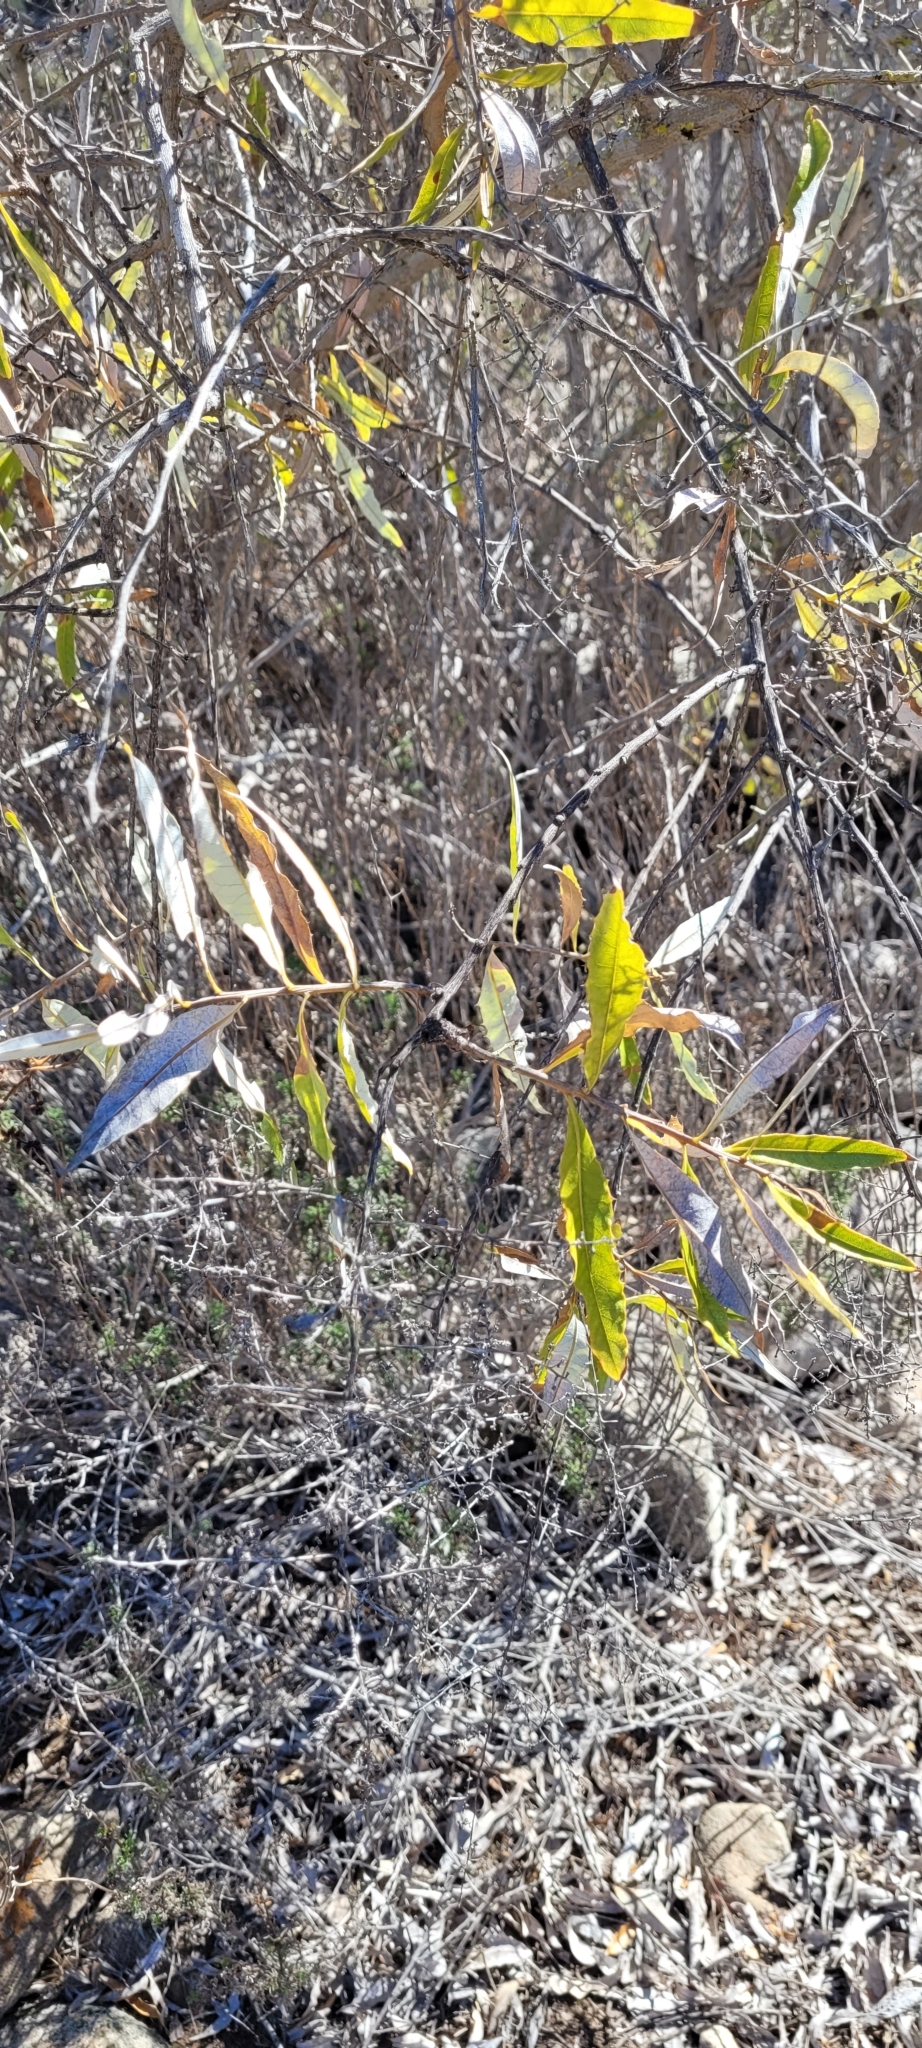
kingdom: Plantae
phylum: Tracheophyta
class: Magnoliopsida
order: Asterales
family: Asteraceae
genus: Spinoliva
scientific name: Spinoliva ilicifolia
